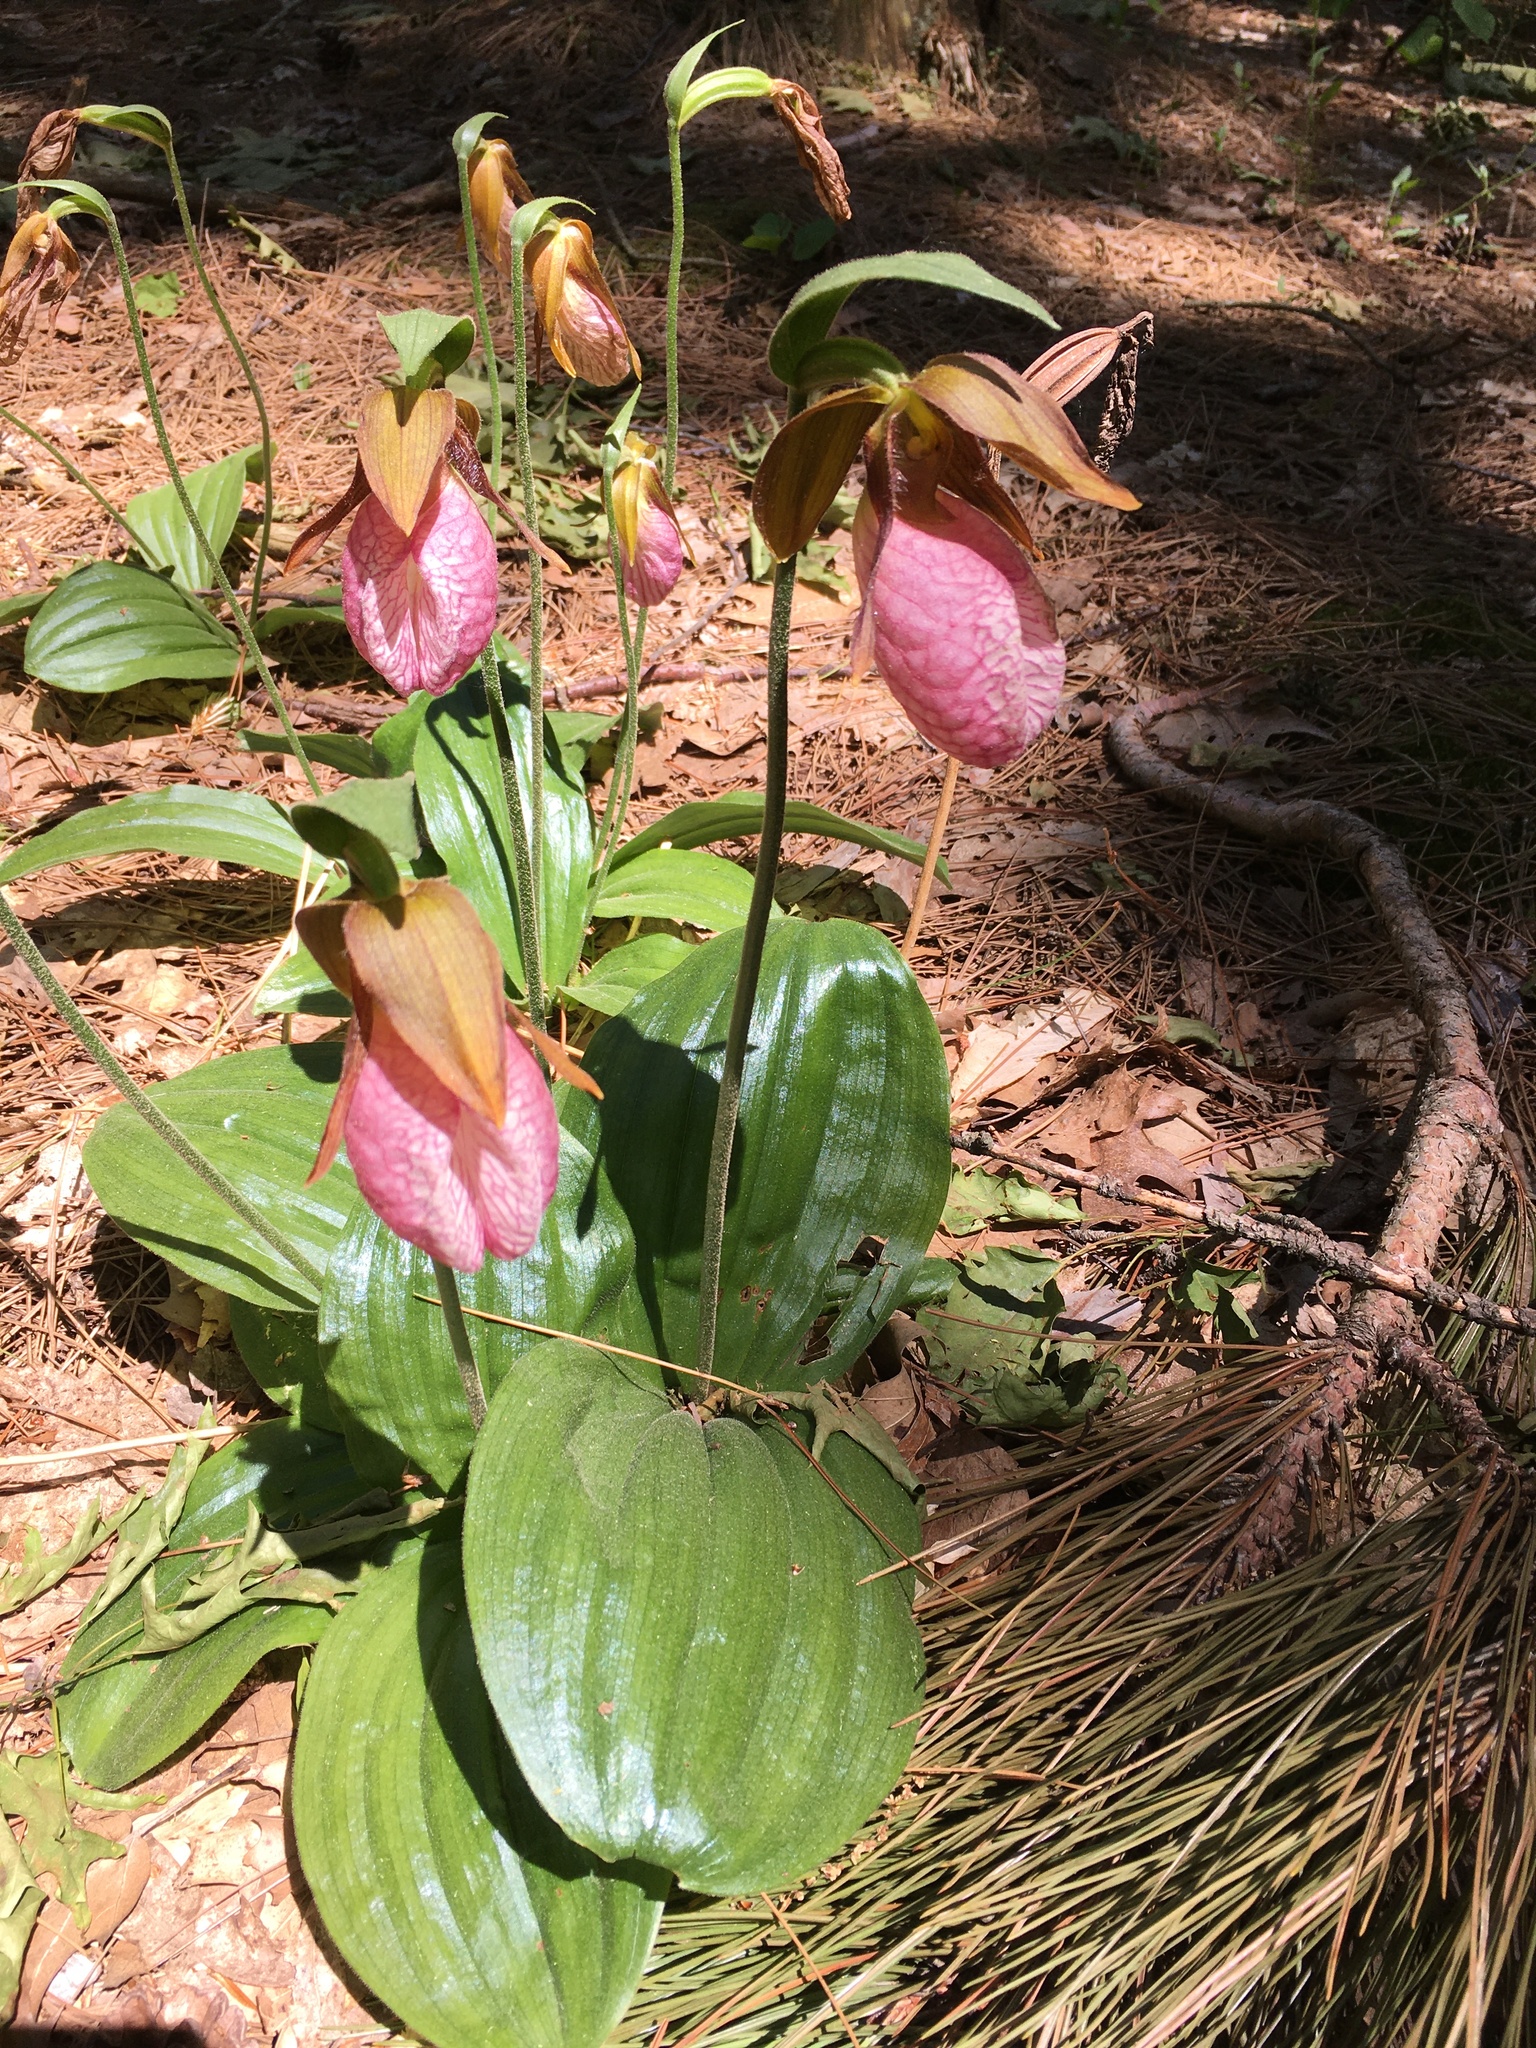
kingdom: Plantae
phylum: Tracheophyta
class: Liliopsida
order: Asparagales
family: Orchidaceae
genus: Cypripedium
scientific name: Cypripedium acaule
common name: Pink lady's-slipper
